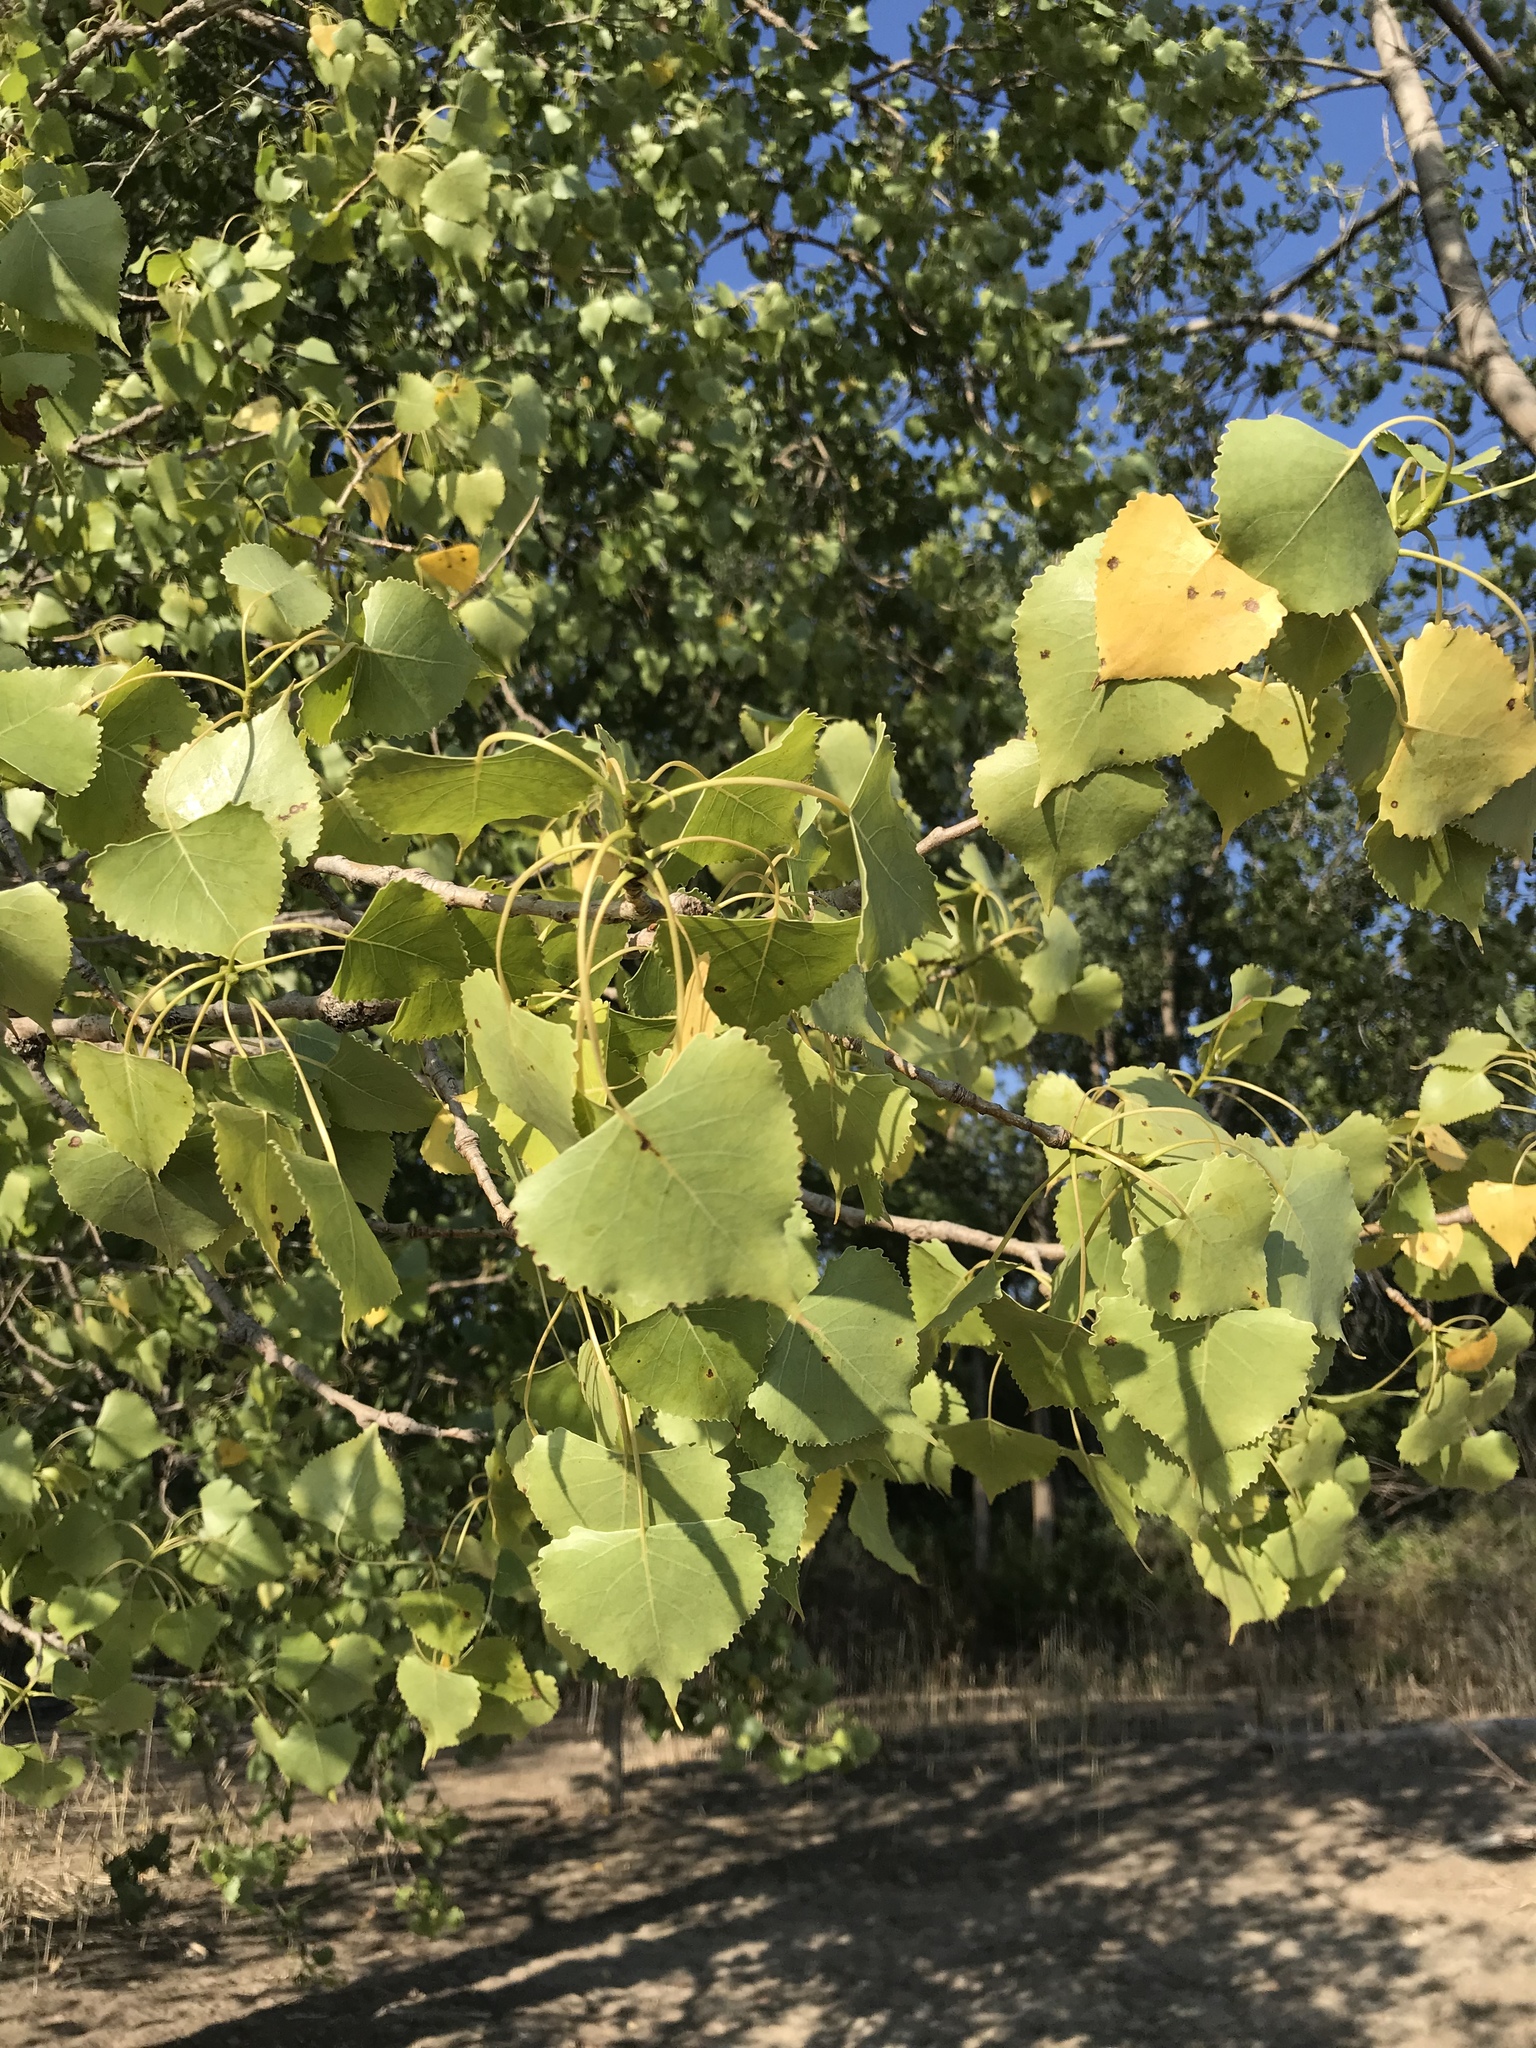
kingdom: Plantae
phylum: Tracheophyta
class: Magnoliopsida
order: Malpighiales
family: Salicaceae
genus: Populus
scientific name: Populus deltoides
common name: Eastern cottonwood
